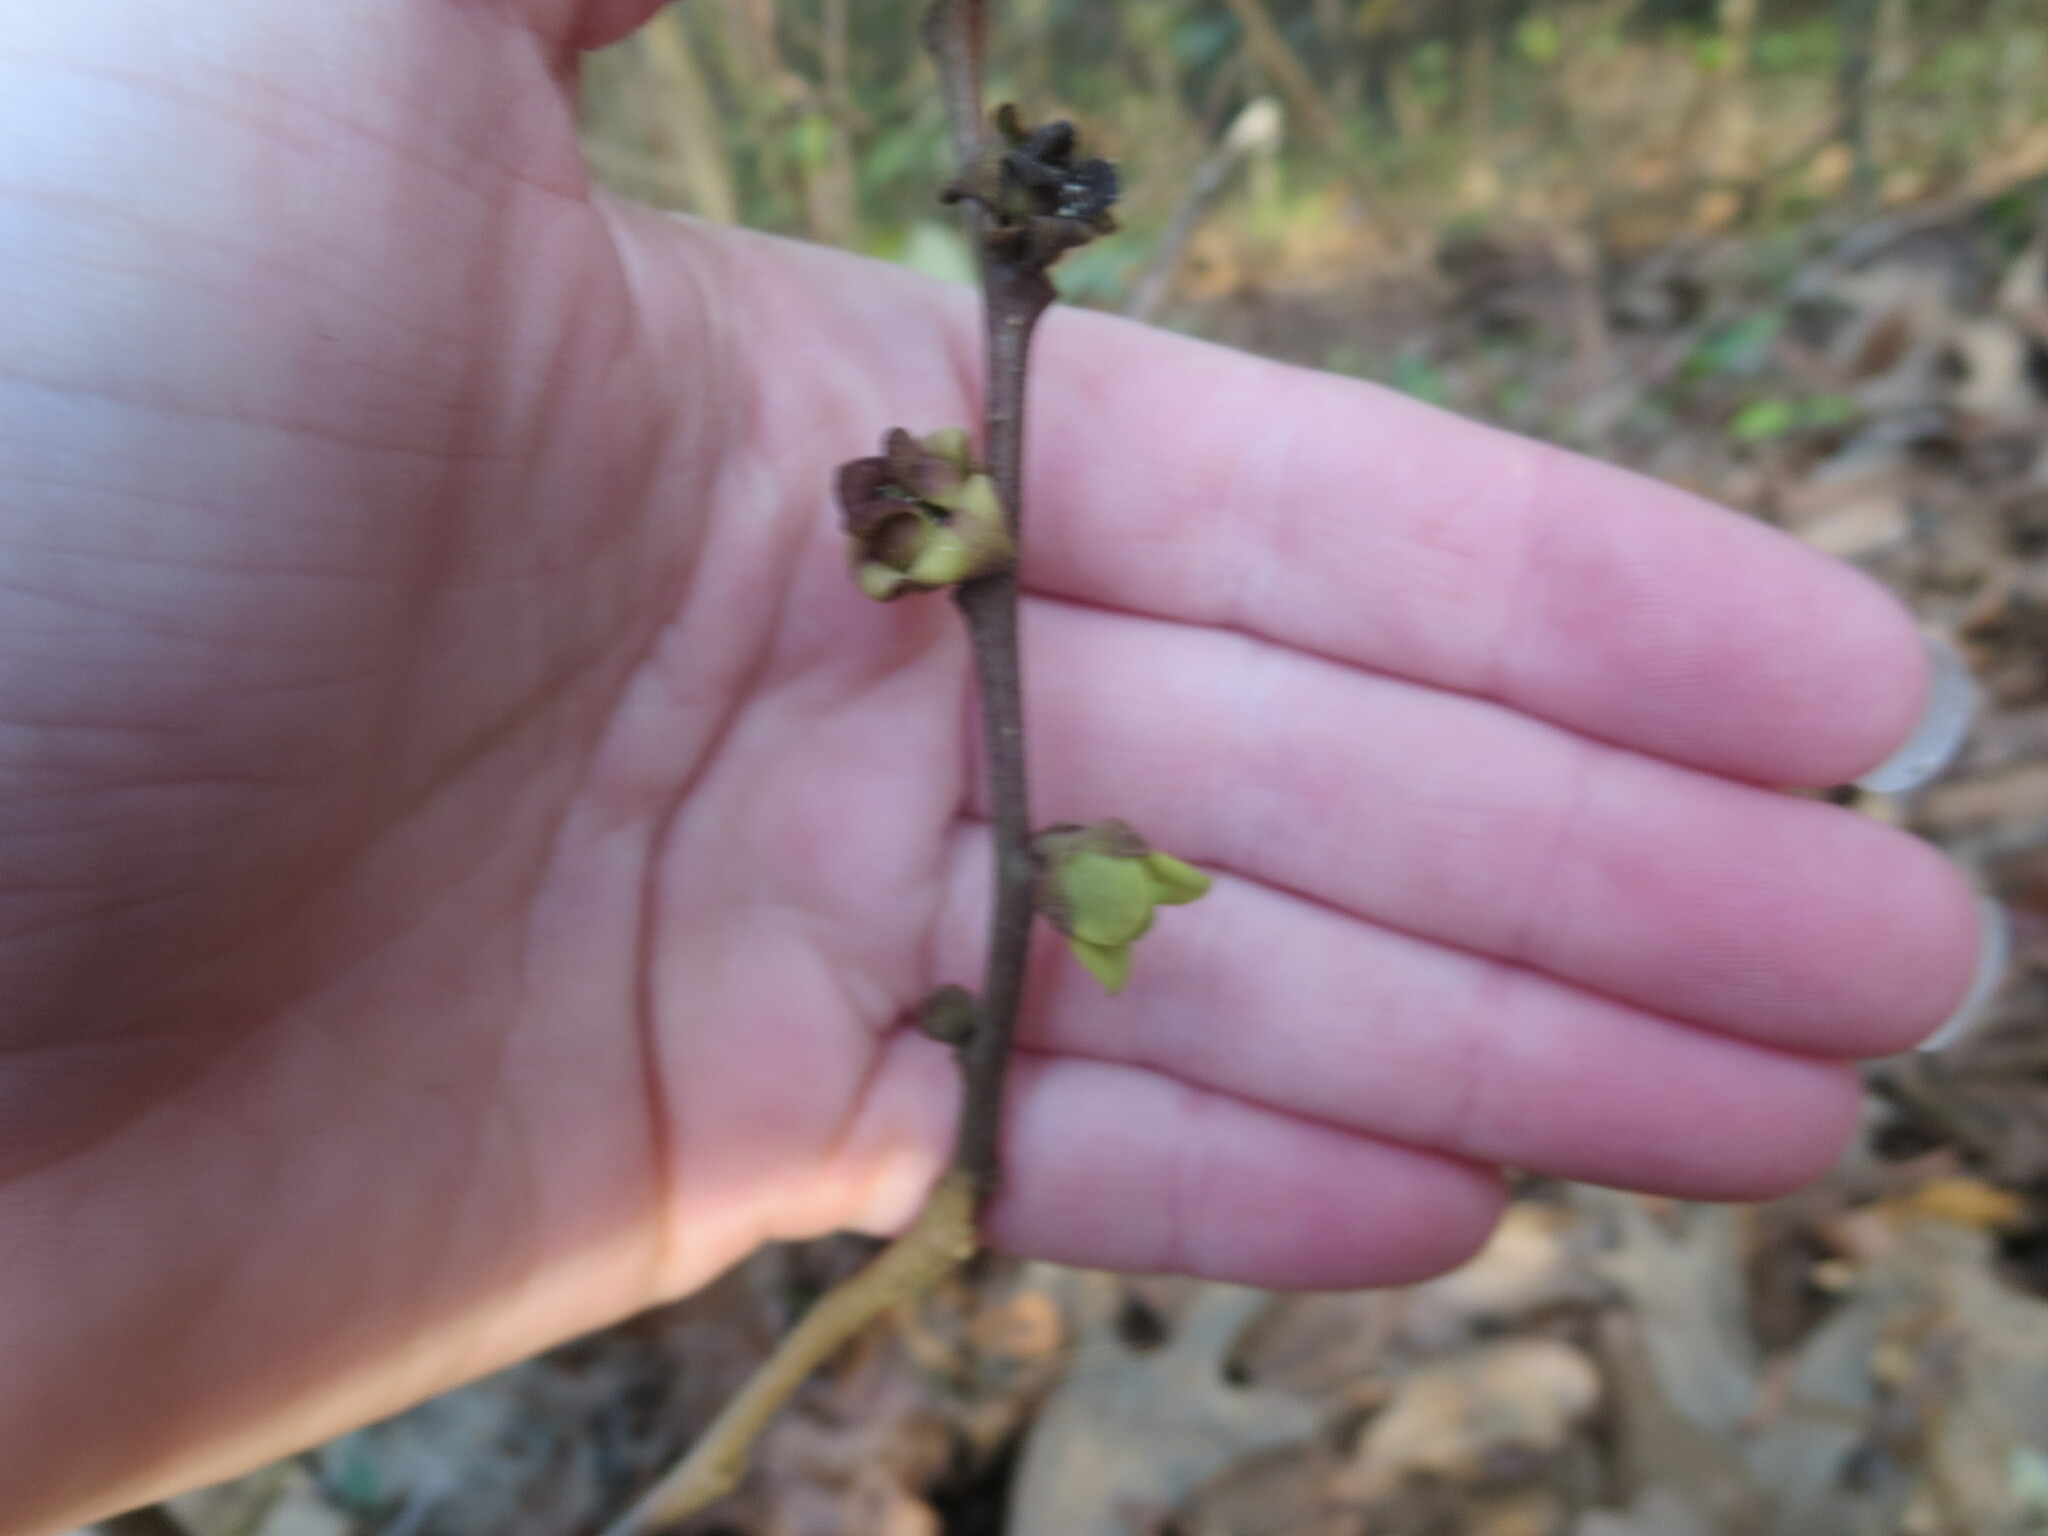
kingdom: Plantae
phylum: Tracheophyta
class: Magnoliopsida
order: Magnoliales
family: Annonaceae
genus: Asimina
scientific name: Asimina parviflora
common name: Dwarf pawpaw
